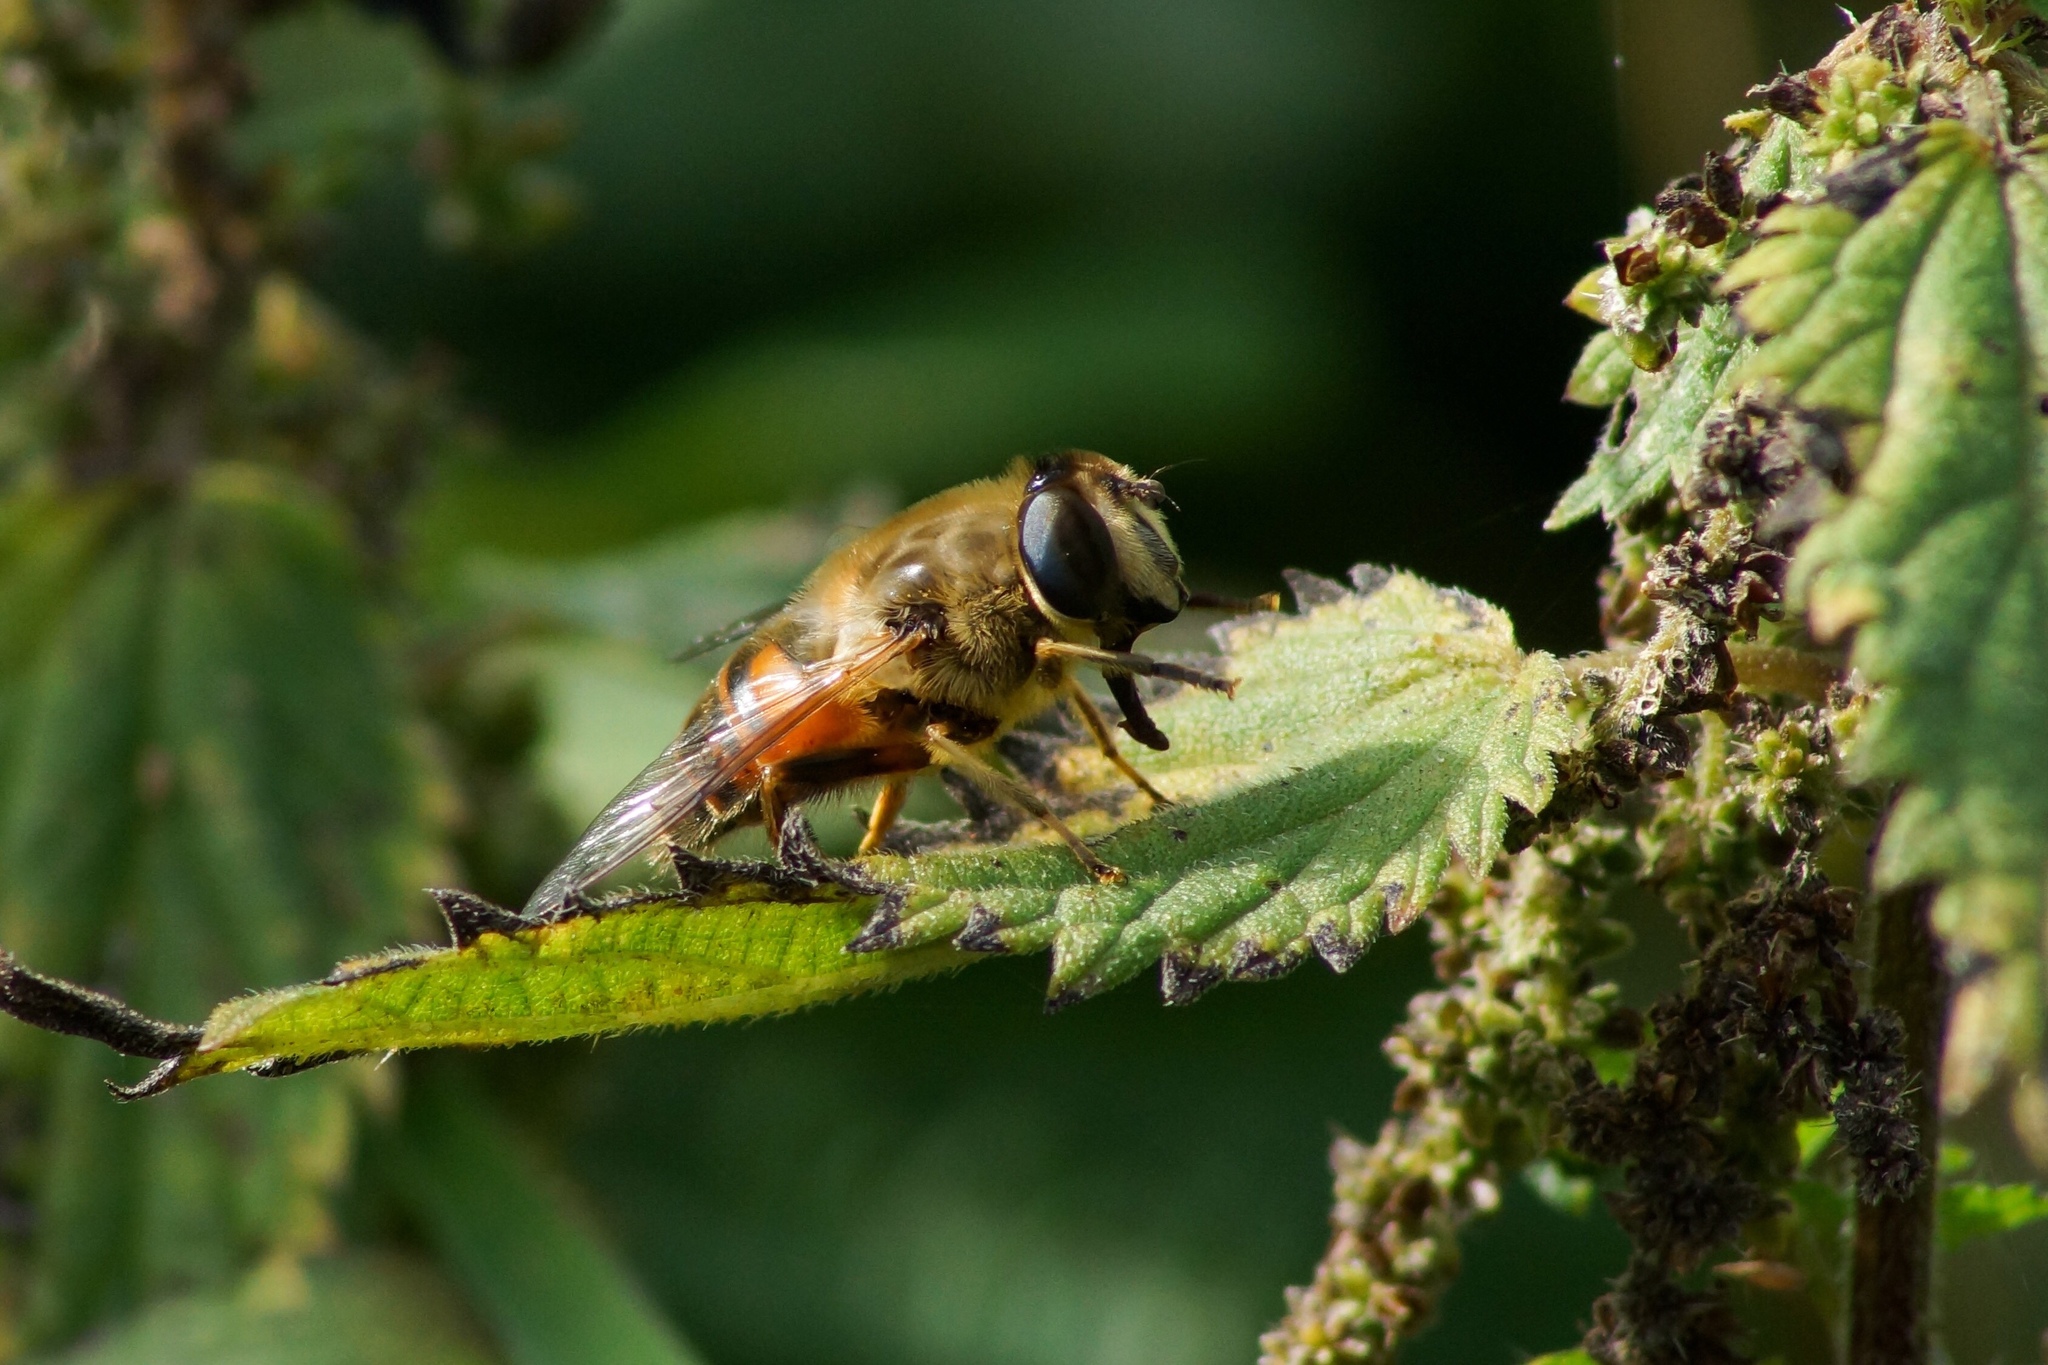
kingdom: Animalia
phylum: Arthropoda
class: Insecta
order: Diptera
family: Syrphidae
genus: Eristalis
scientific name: Eristalis tenax
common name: Drone fly
